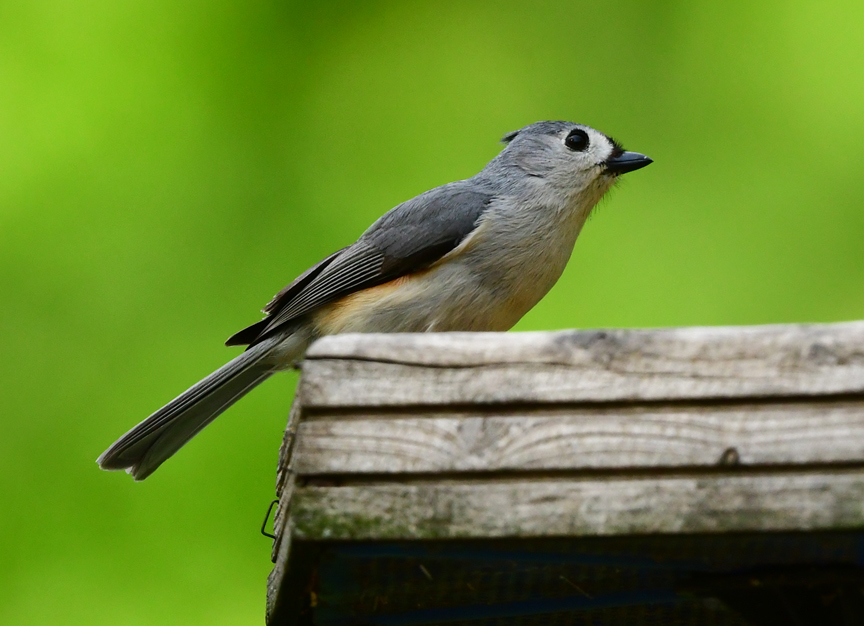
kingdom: Animalia
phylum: Chordata
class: Aves
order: Passeriformes
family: Paridae
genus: Baeolophus
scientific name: Baeolophus bicolor
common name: Tufted titmouse
